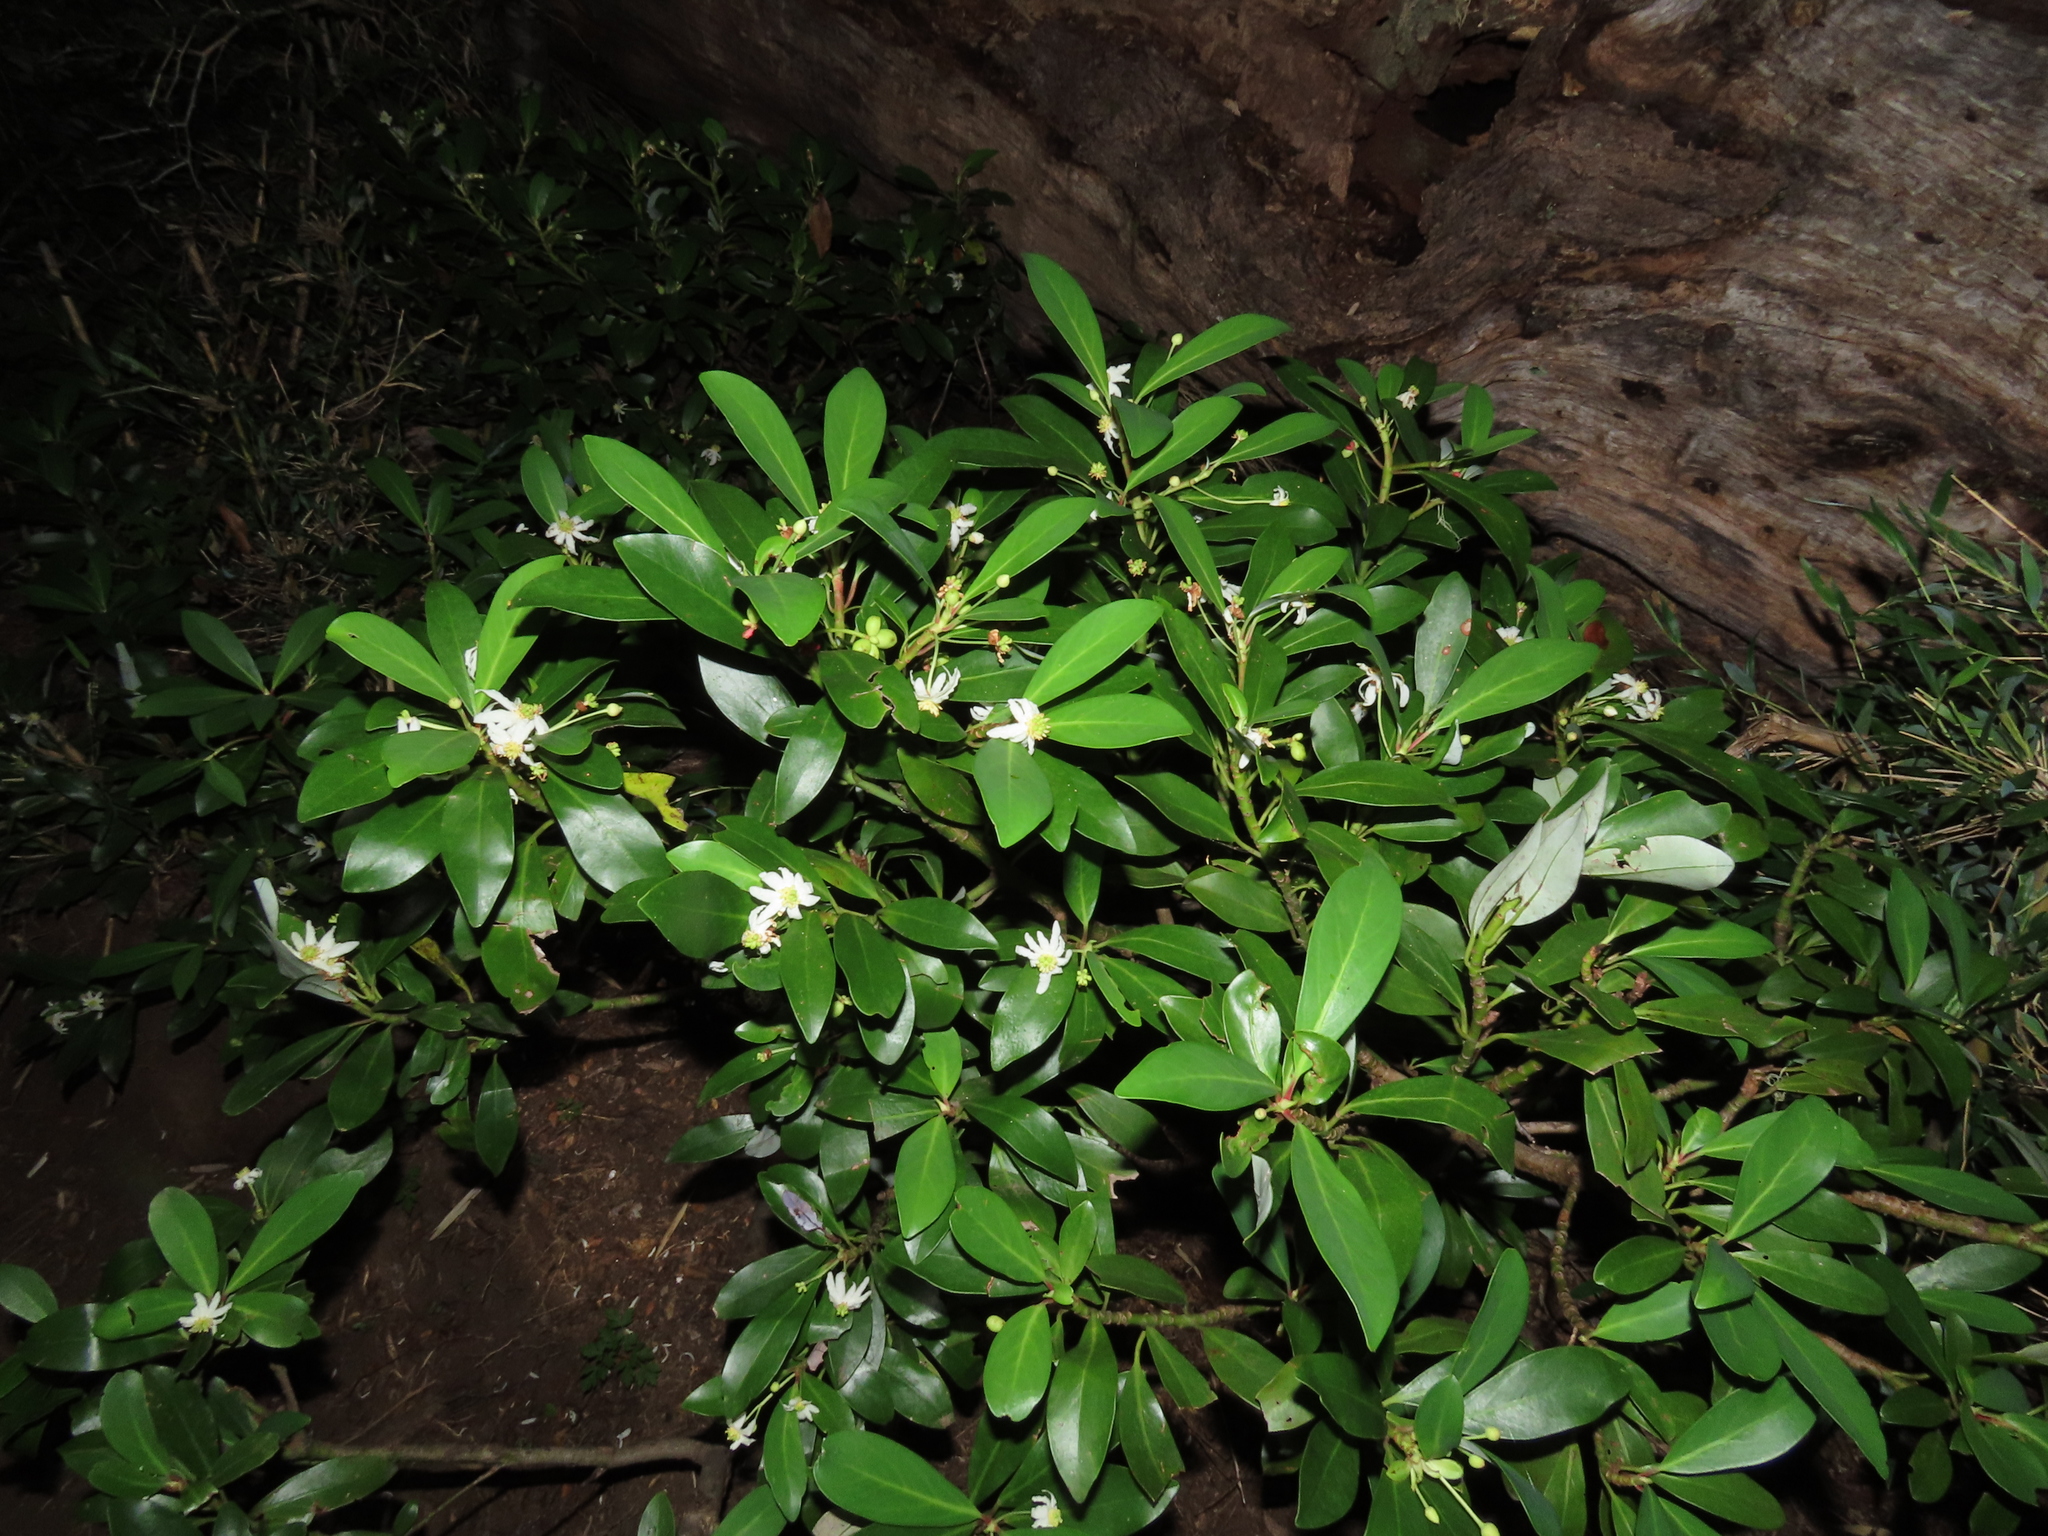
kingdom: Plantae
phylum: Tracheophyta
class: Magnoliopsida
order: Canellales
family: Winteraceae
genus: Drimys
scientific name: Drimys andina
